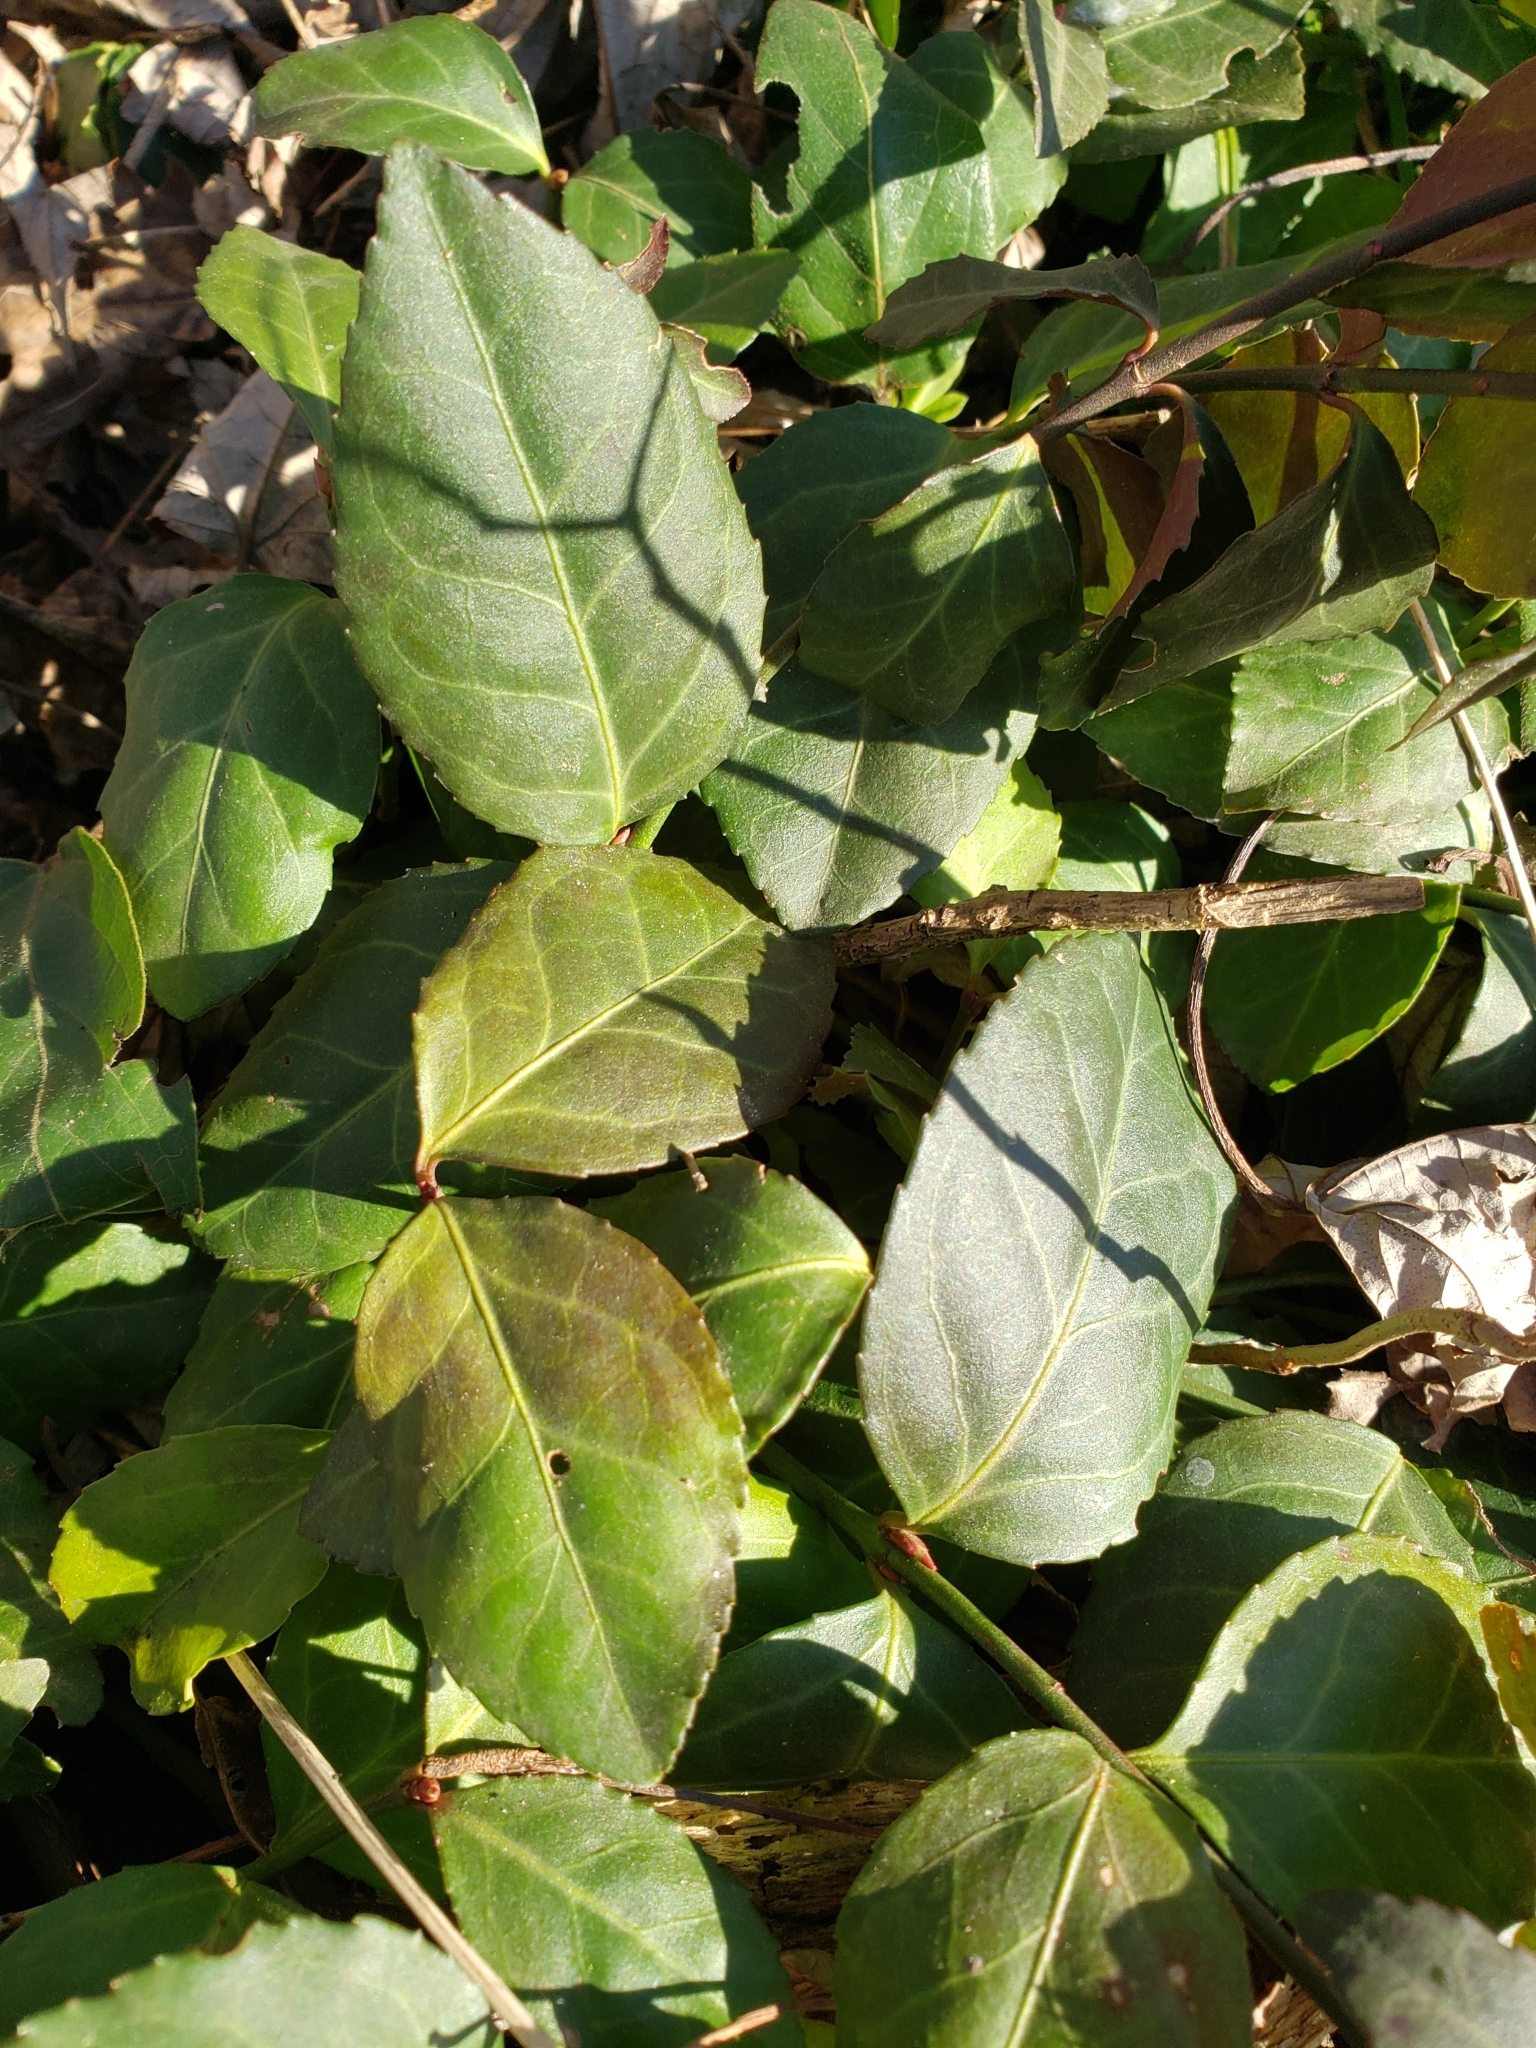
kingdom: Plantae
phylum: Tracheophyta
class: Magnoliopsida
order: Celastrales
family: Celastraceae
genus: Euonymus
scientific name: Euonymus fortunei
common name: Climbing euonymus
